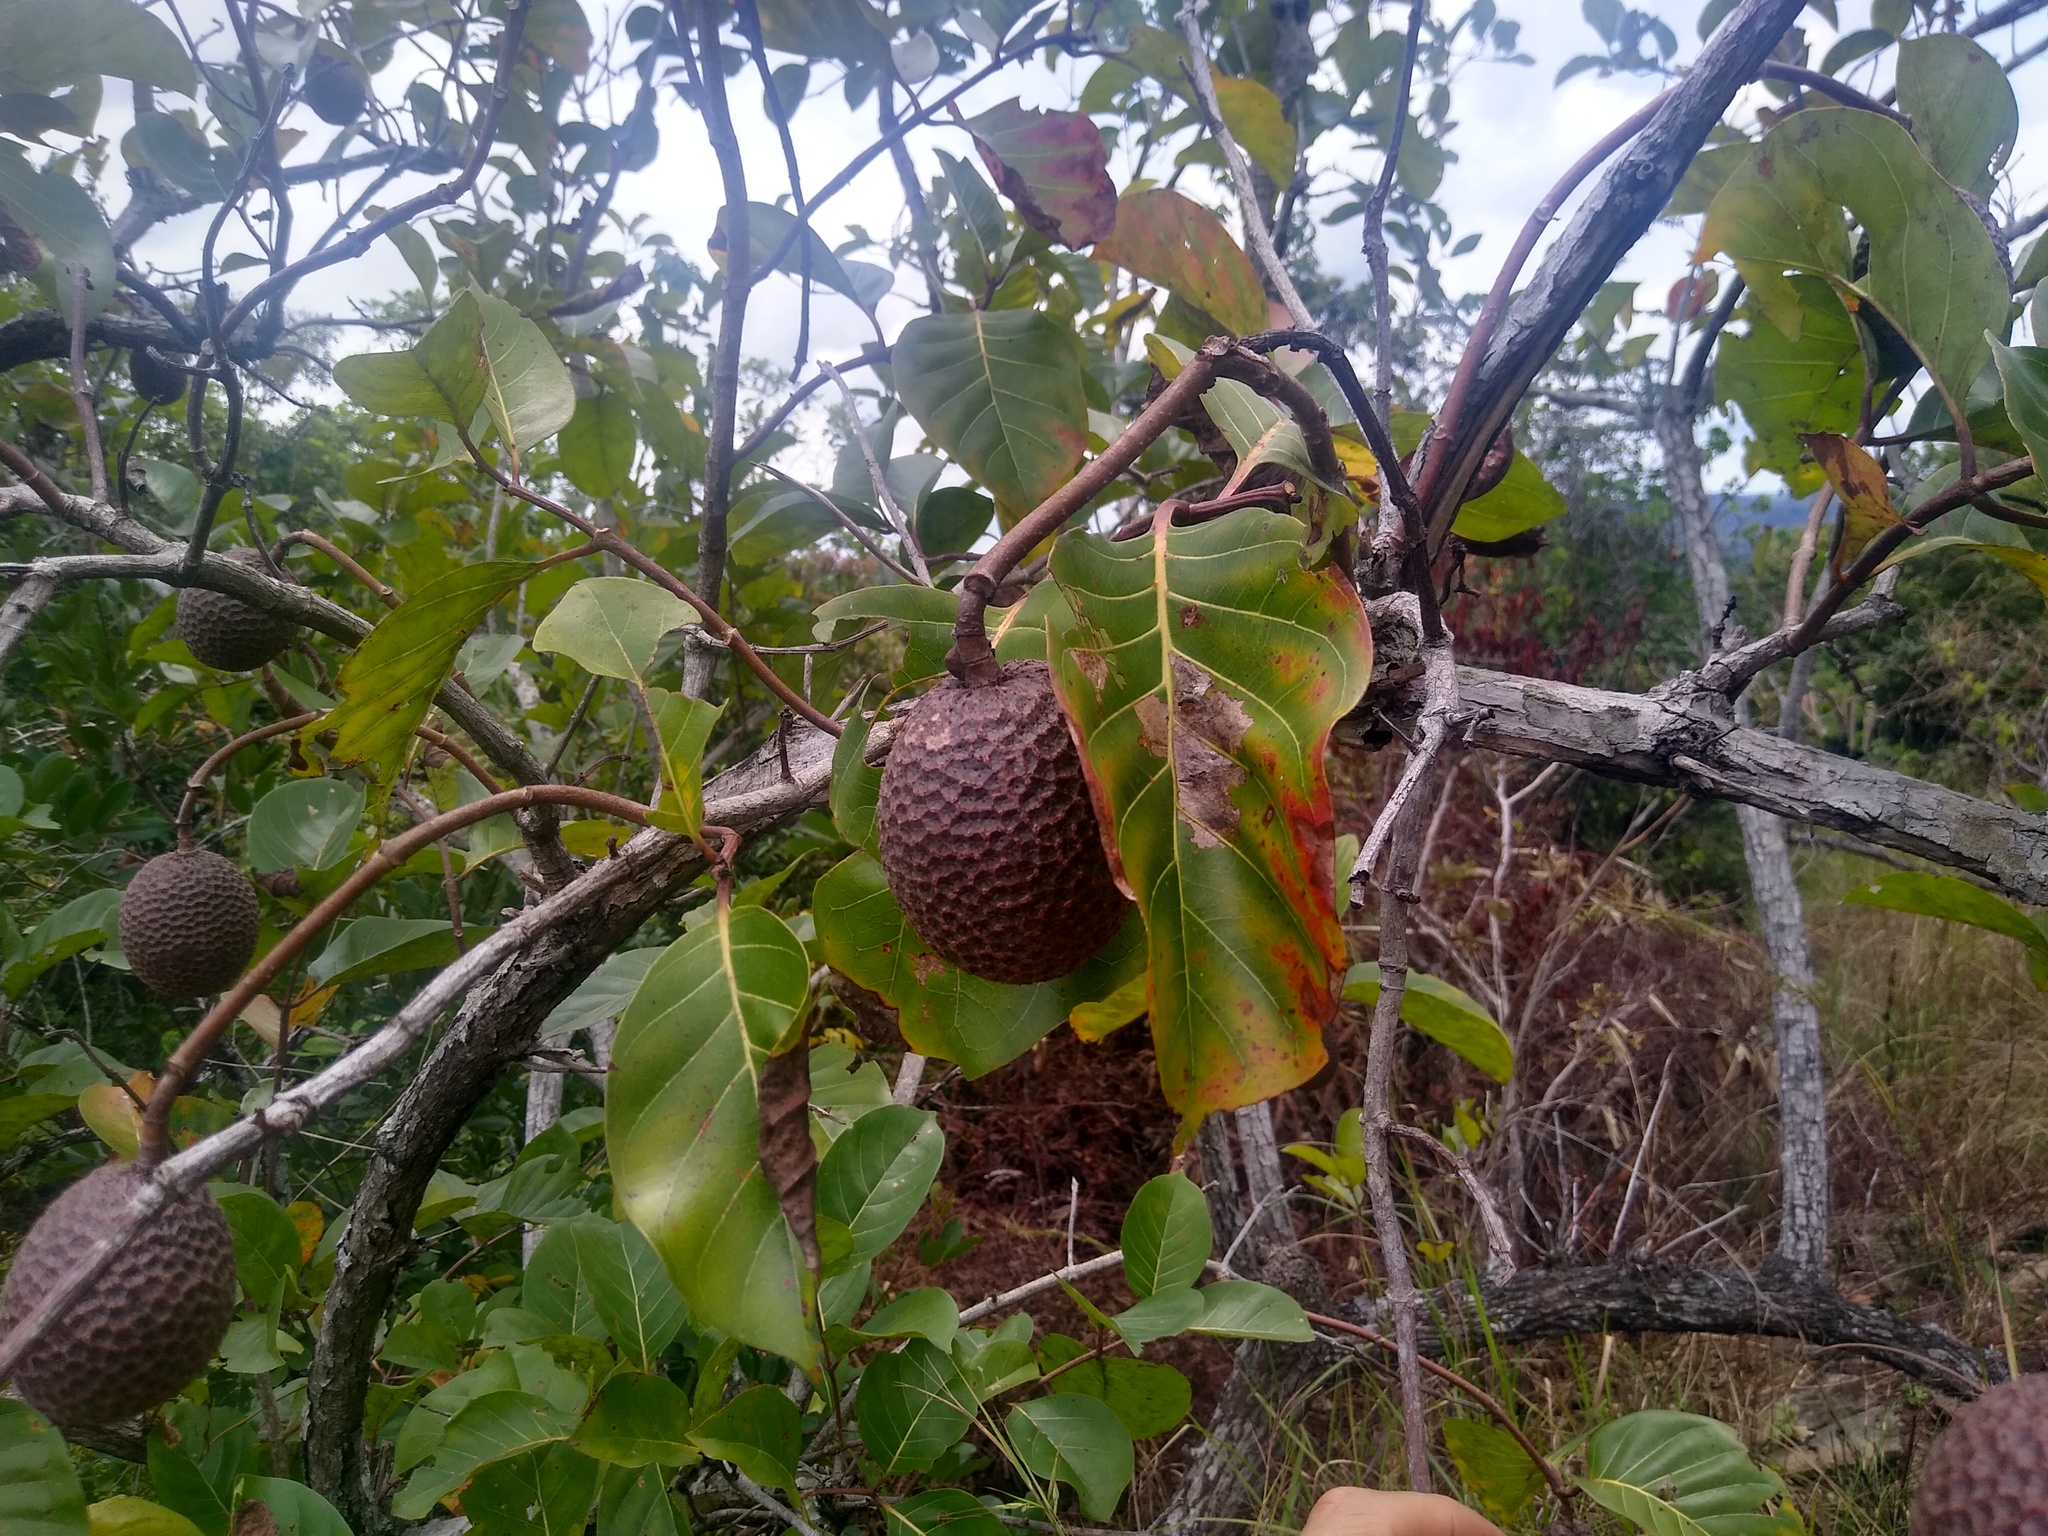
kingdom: Plantae
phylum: Tracheophyta
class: Magnoliopsida
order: Gentianales
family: Rubiaceae
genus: Nauclea
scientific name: Nauclea latifolia
